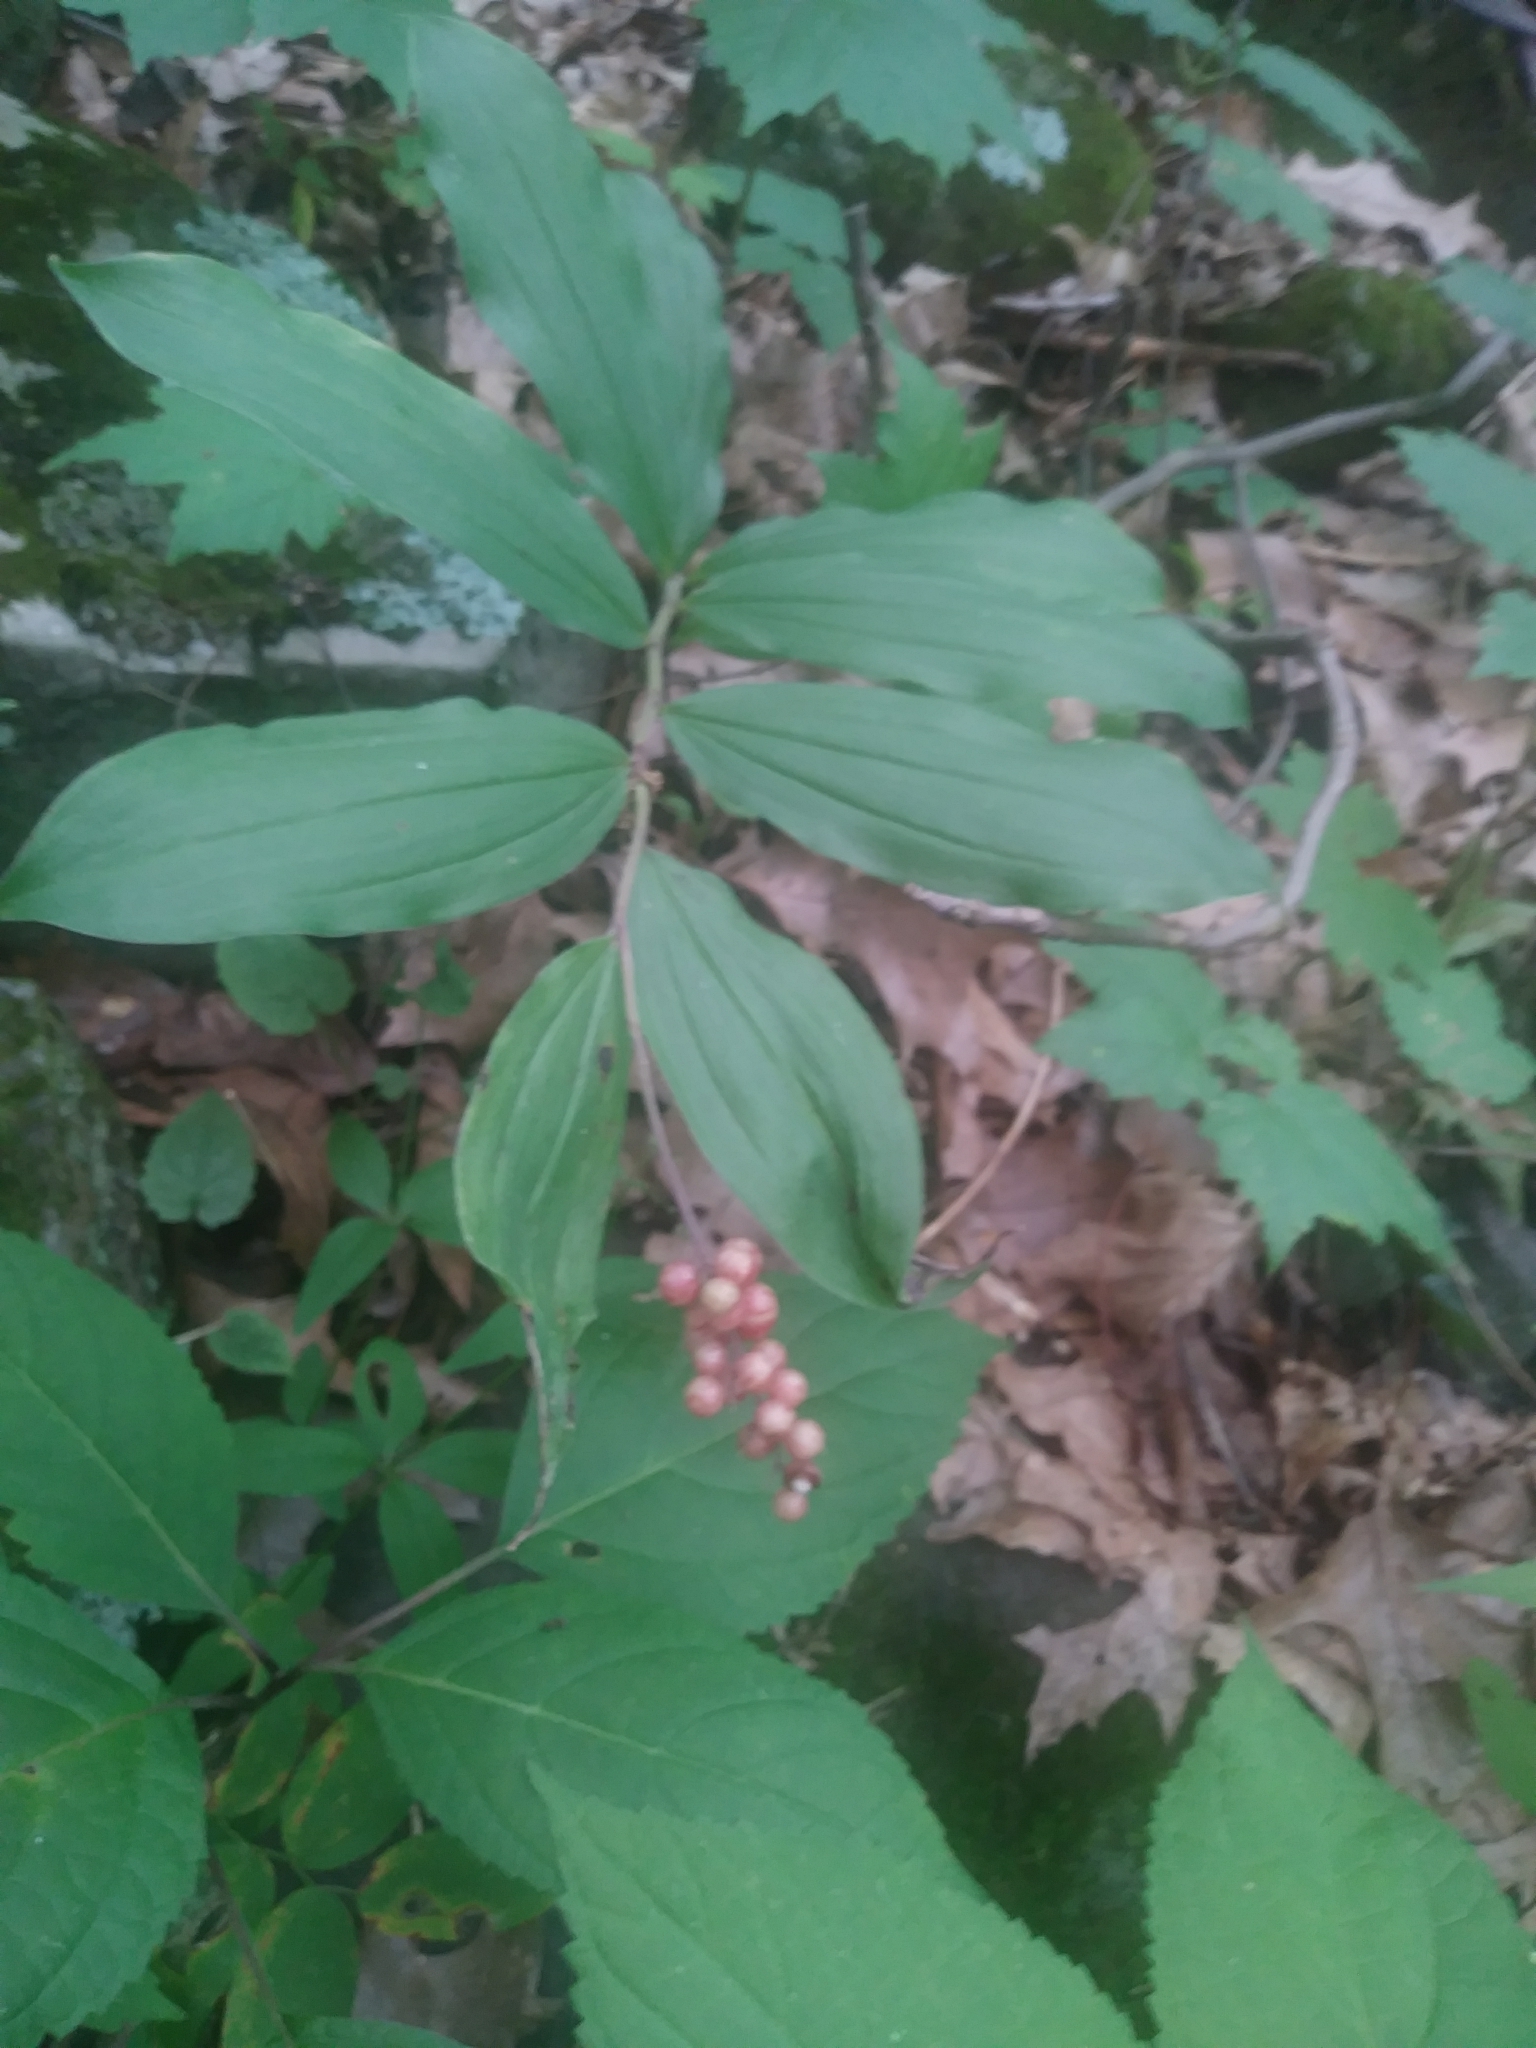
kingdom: Plantae
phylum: Tracheophyta
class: Liliopsida
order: Asparagales
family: Asparagaceae
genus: Maianthemum
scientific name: Maianthemum racemosum
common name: False spikenard
